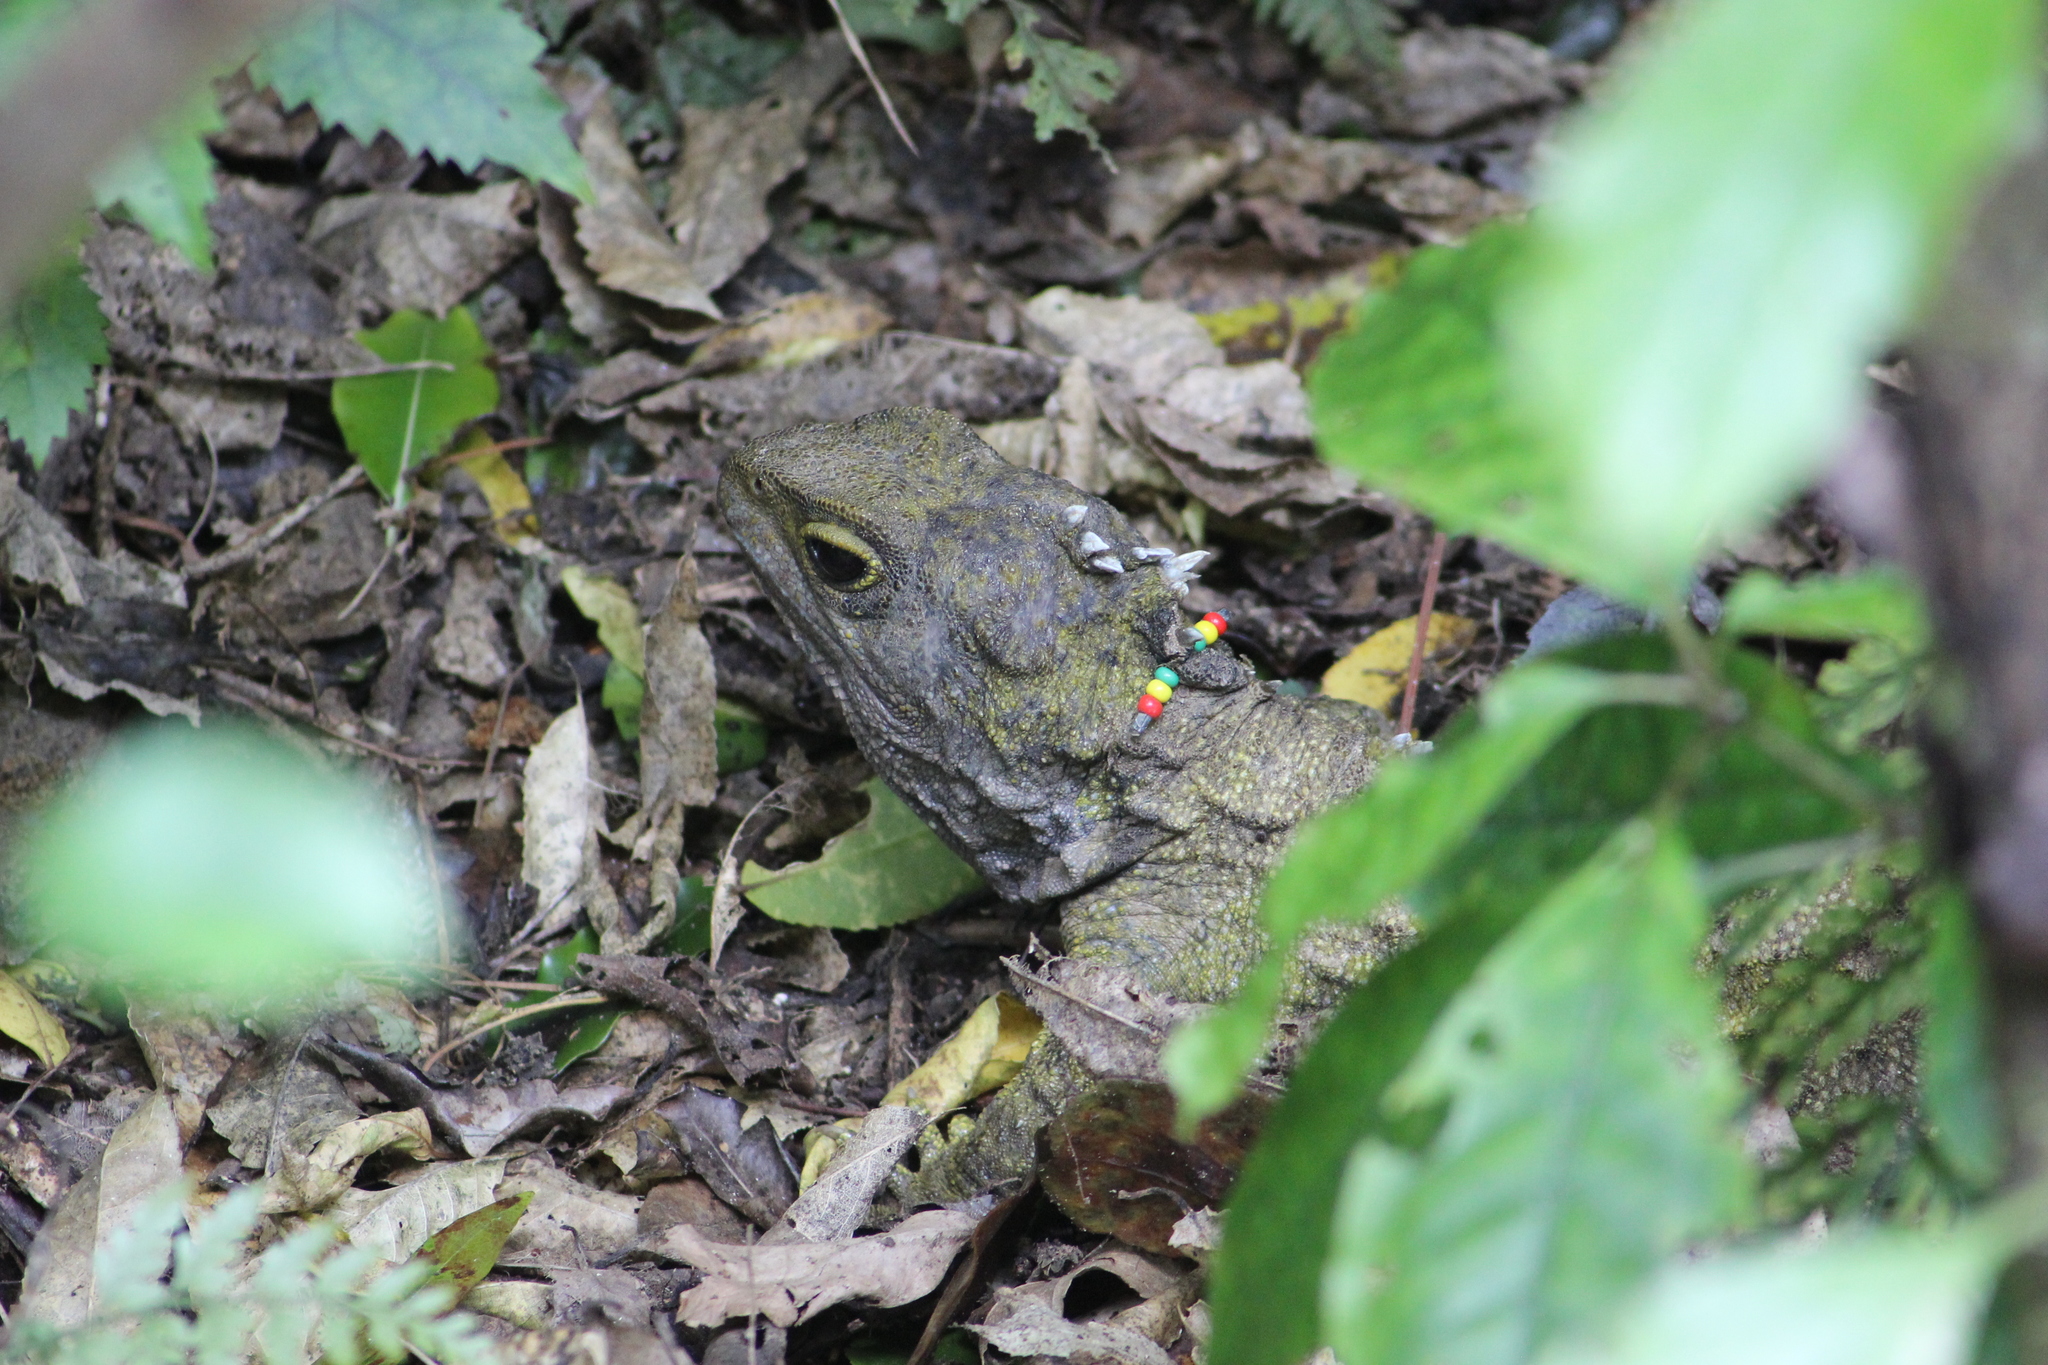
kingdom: Animalia
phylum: Chordata
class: Sphenodontia
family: Sphenodontidae
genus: Sphenodon
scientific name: Sphenodon punctatus
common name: Tuatara
